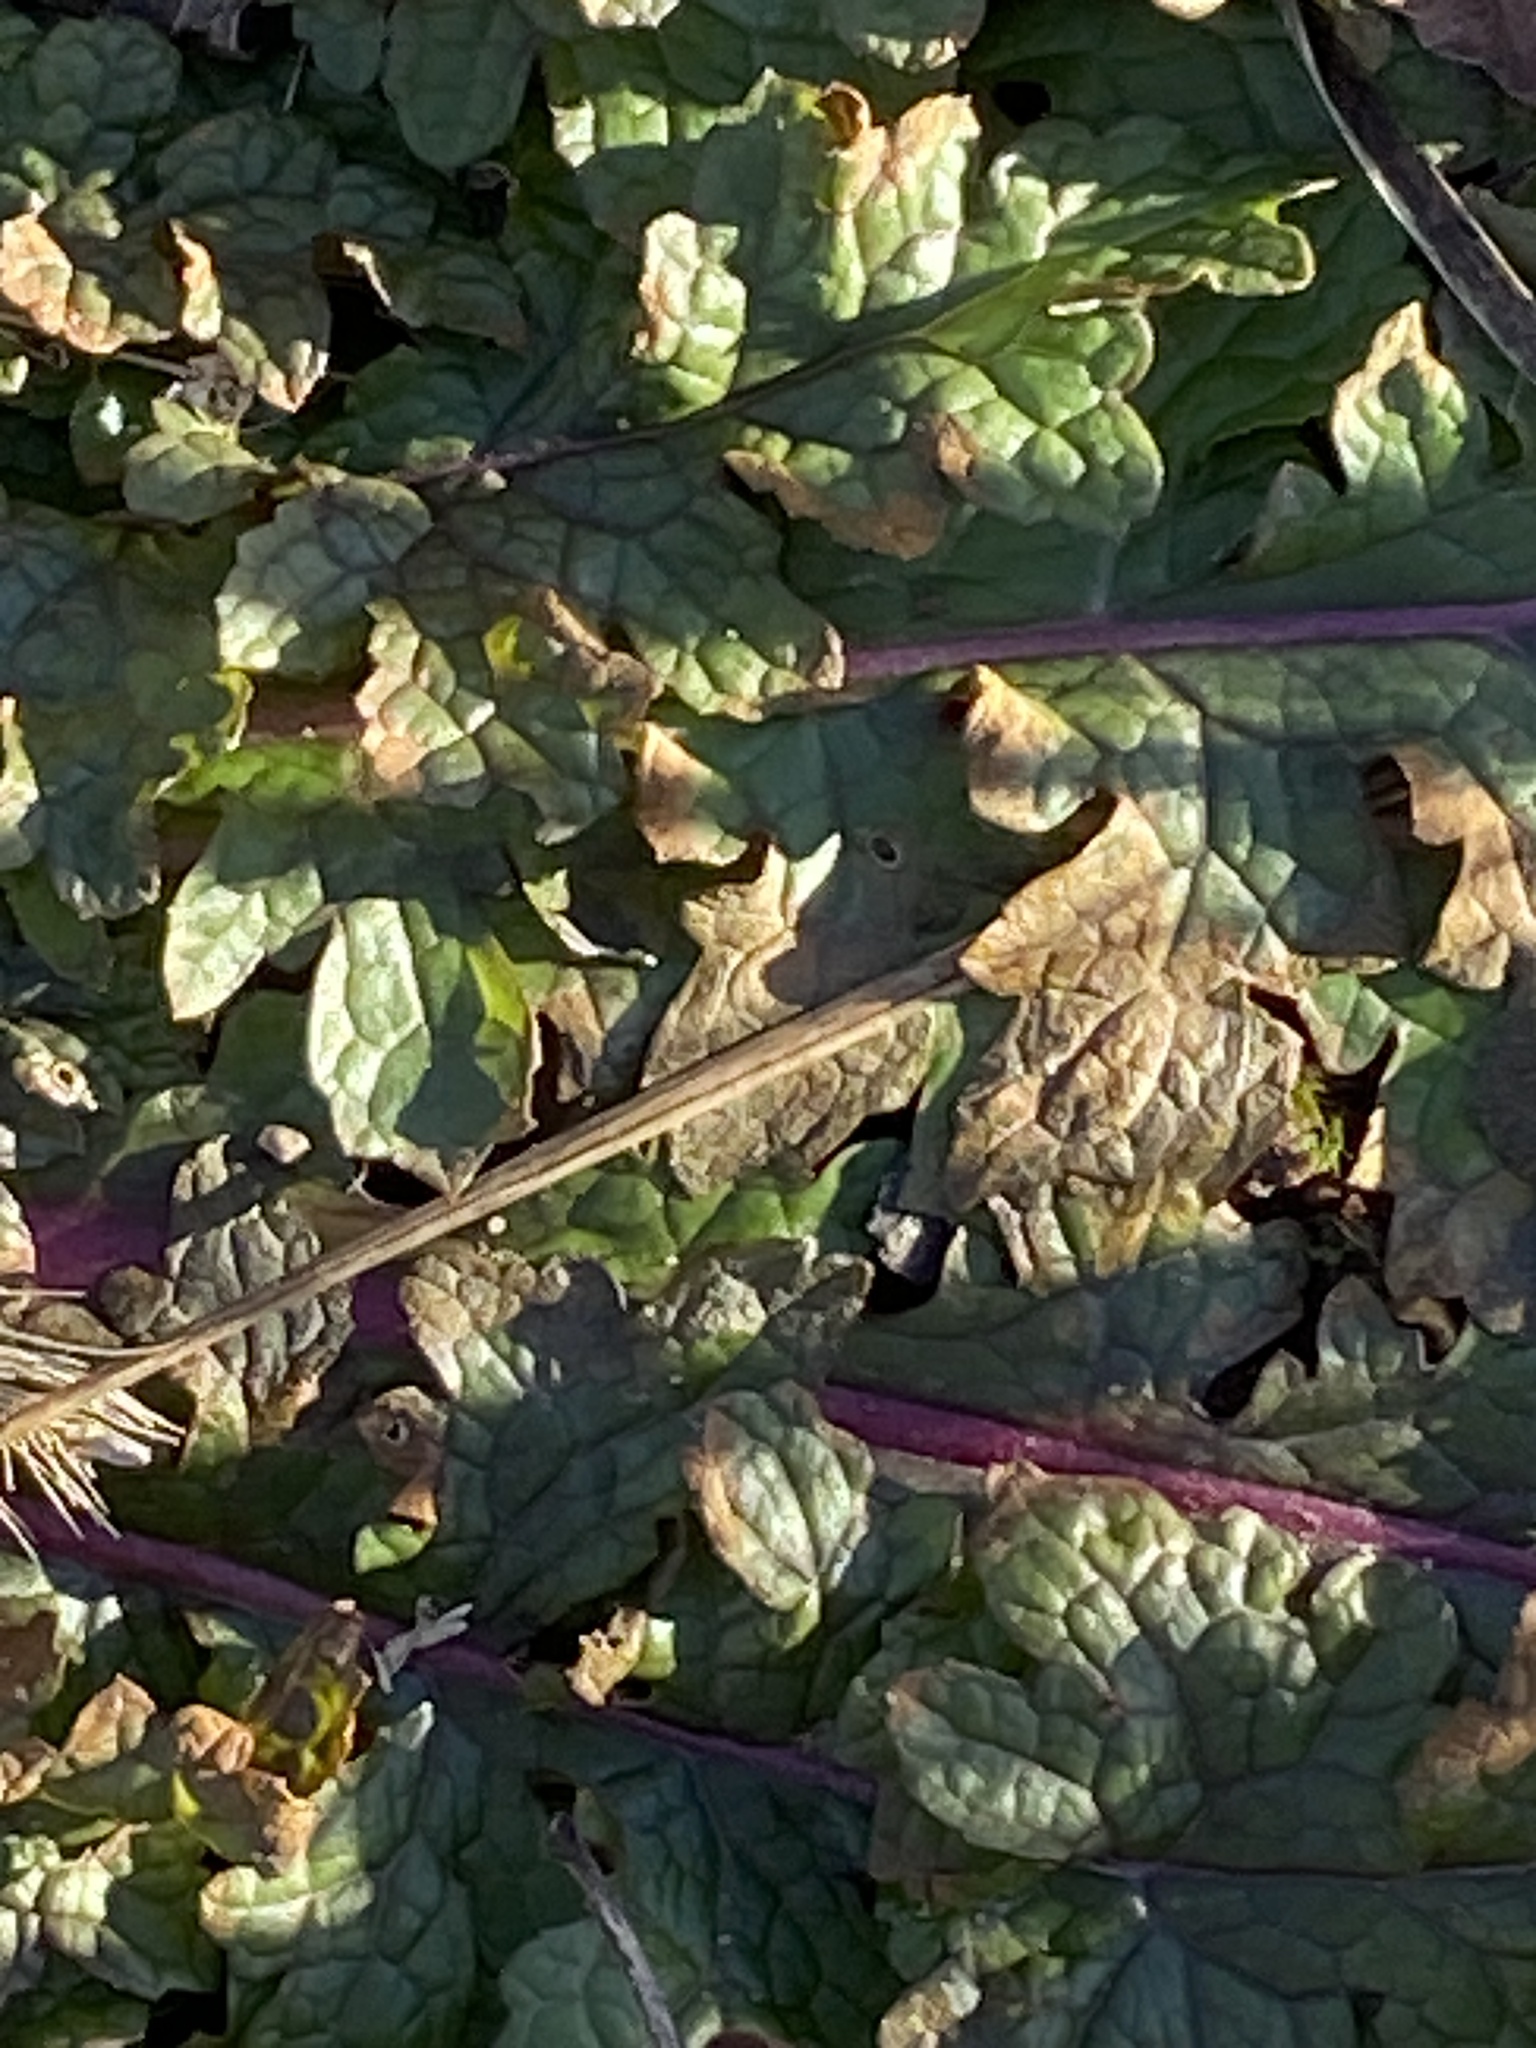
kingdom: Plantae
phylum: Tracheophyta
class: Magnoliopsida
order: Lamiales
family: Scrophulariaceae
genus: Verbascum
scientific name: Verbascum blattaria
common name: Moth mullein
